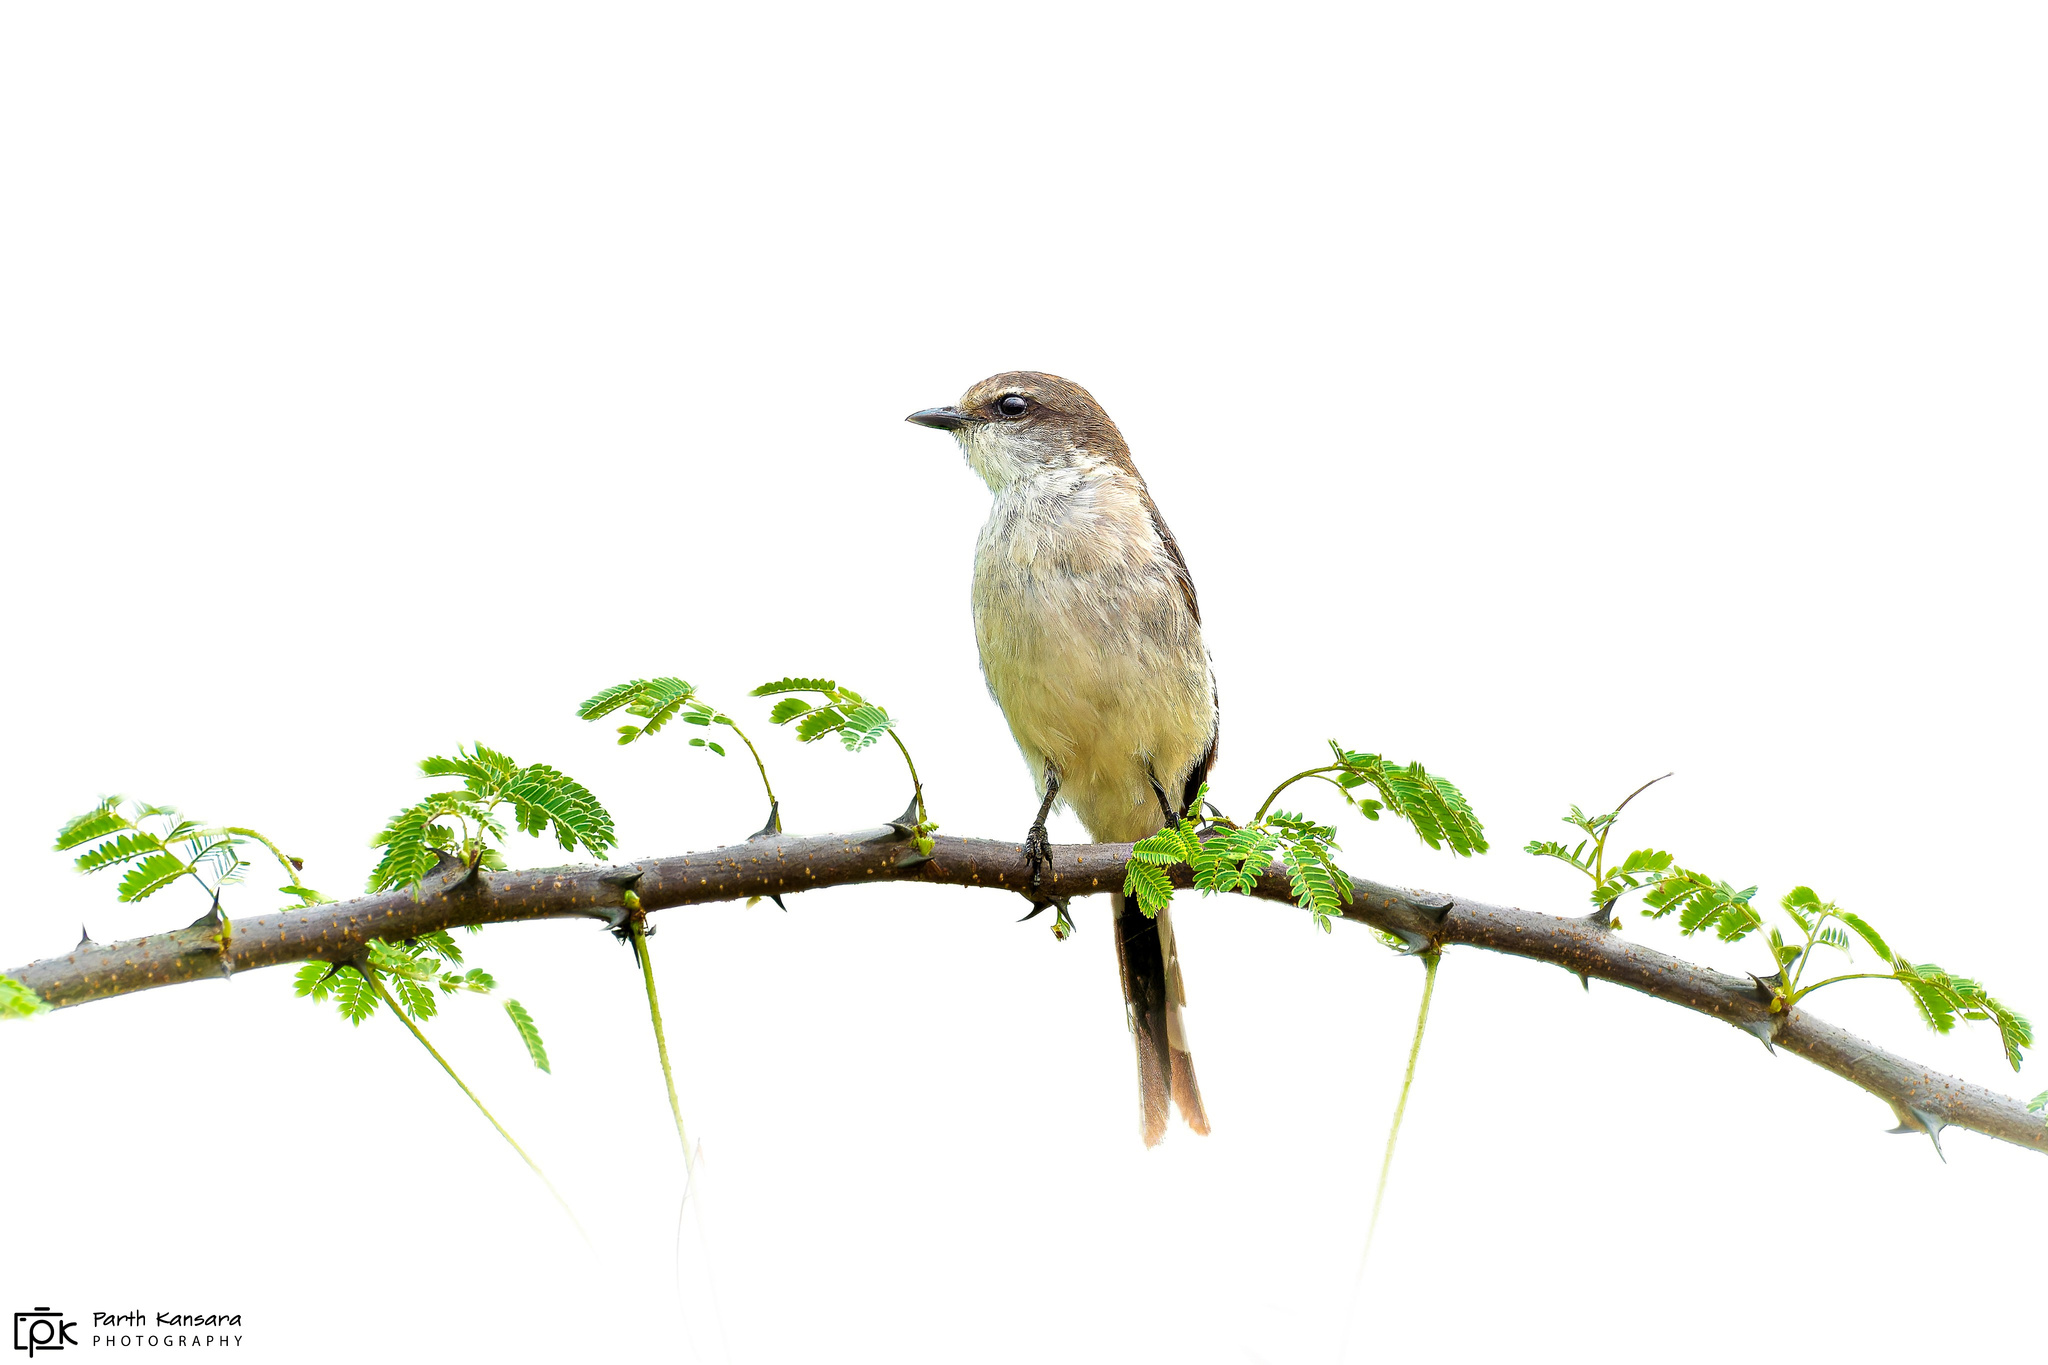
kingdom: Animalia
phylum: Chordata
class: Aves
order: Passeriformes
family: Campephagidae
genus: Pericrocotus
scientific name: Pericrocotus erythropygius
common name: White-bellied minivet
